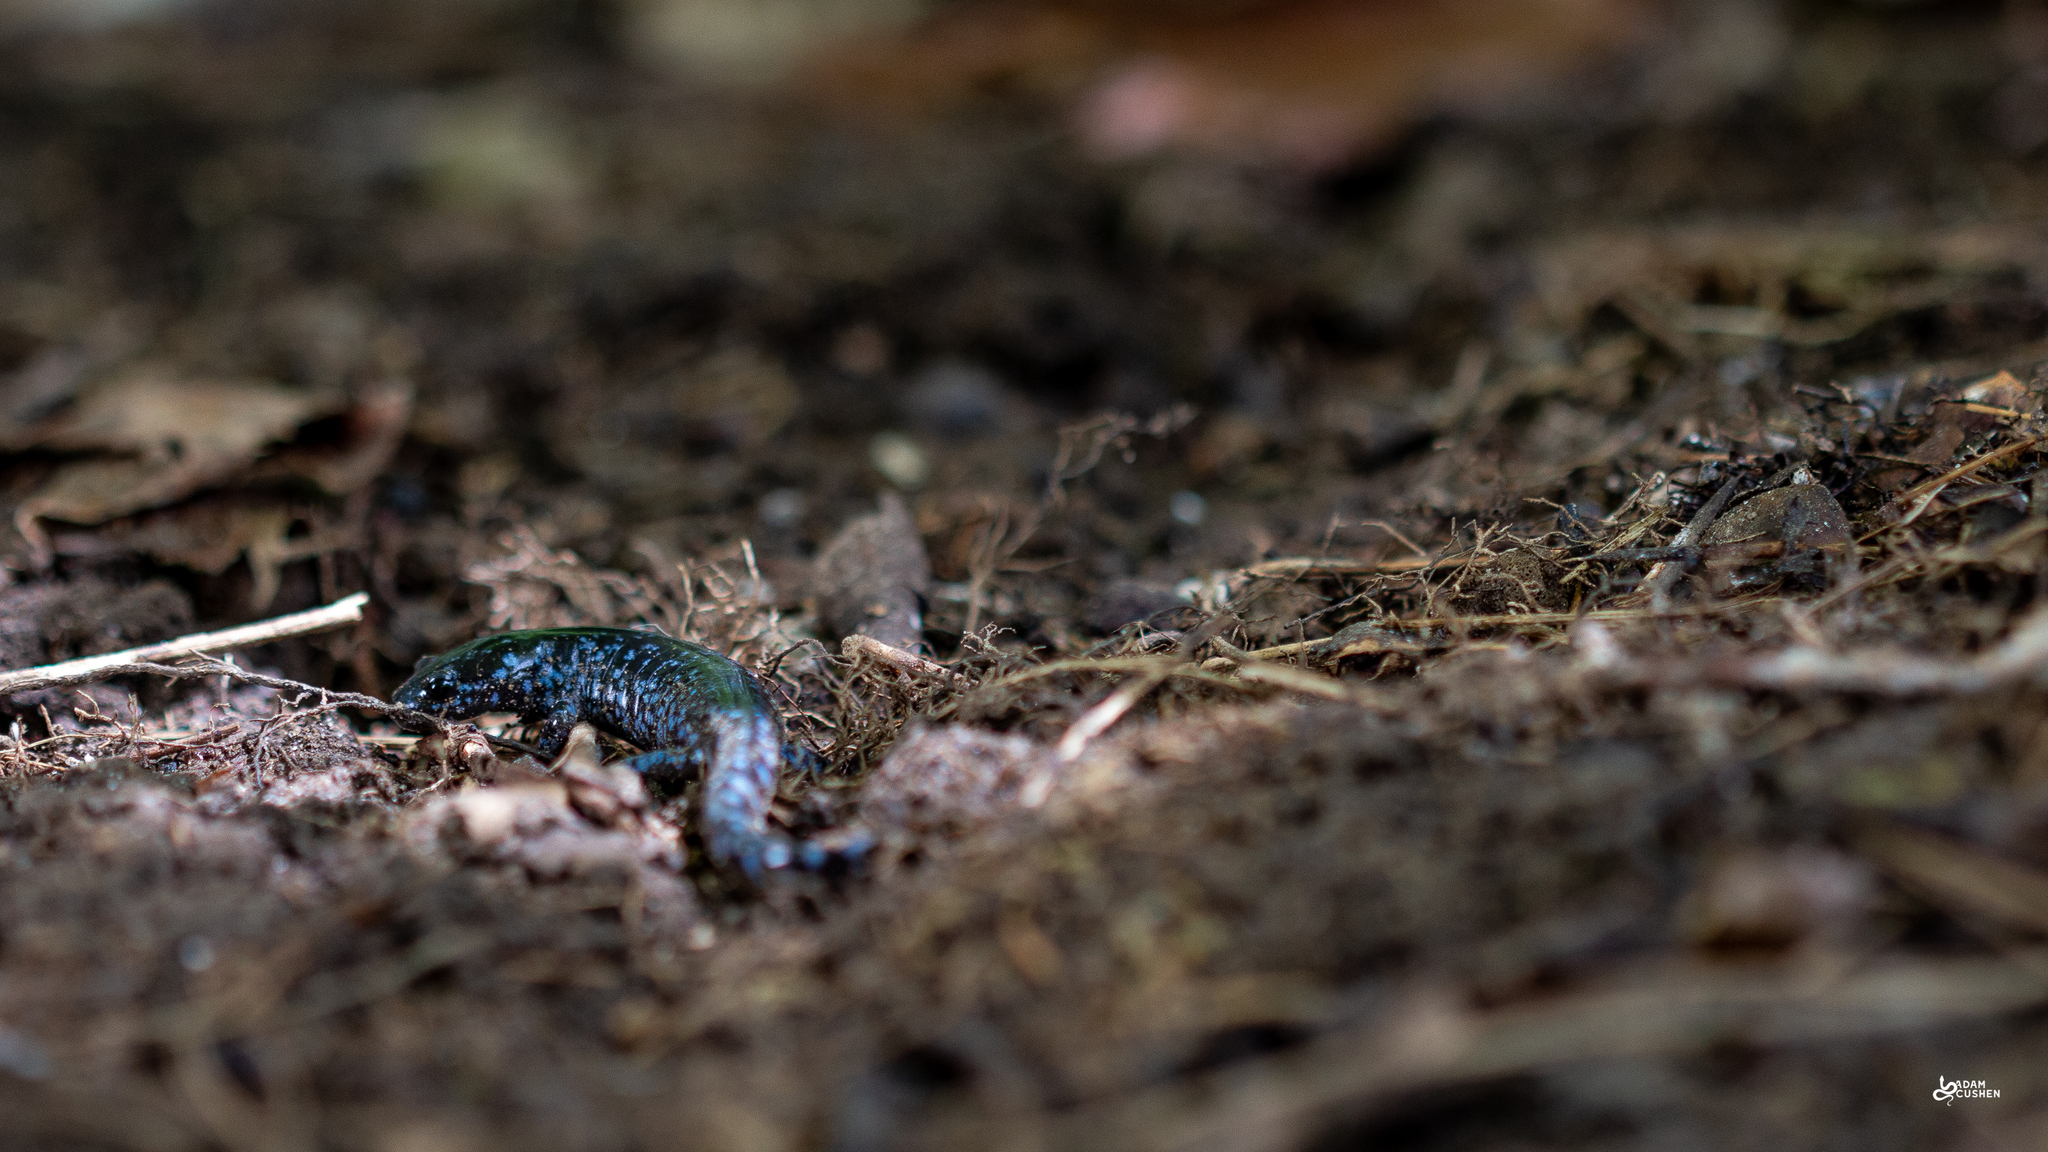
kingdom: Animalia
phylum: Chordata
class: Amphibia
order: Caudata
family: Ambystomatidae
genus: Ambystoma
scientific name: Ambystoma laterale
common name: Blue-spotted salamander
